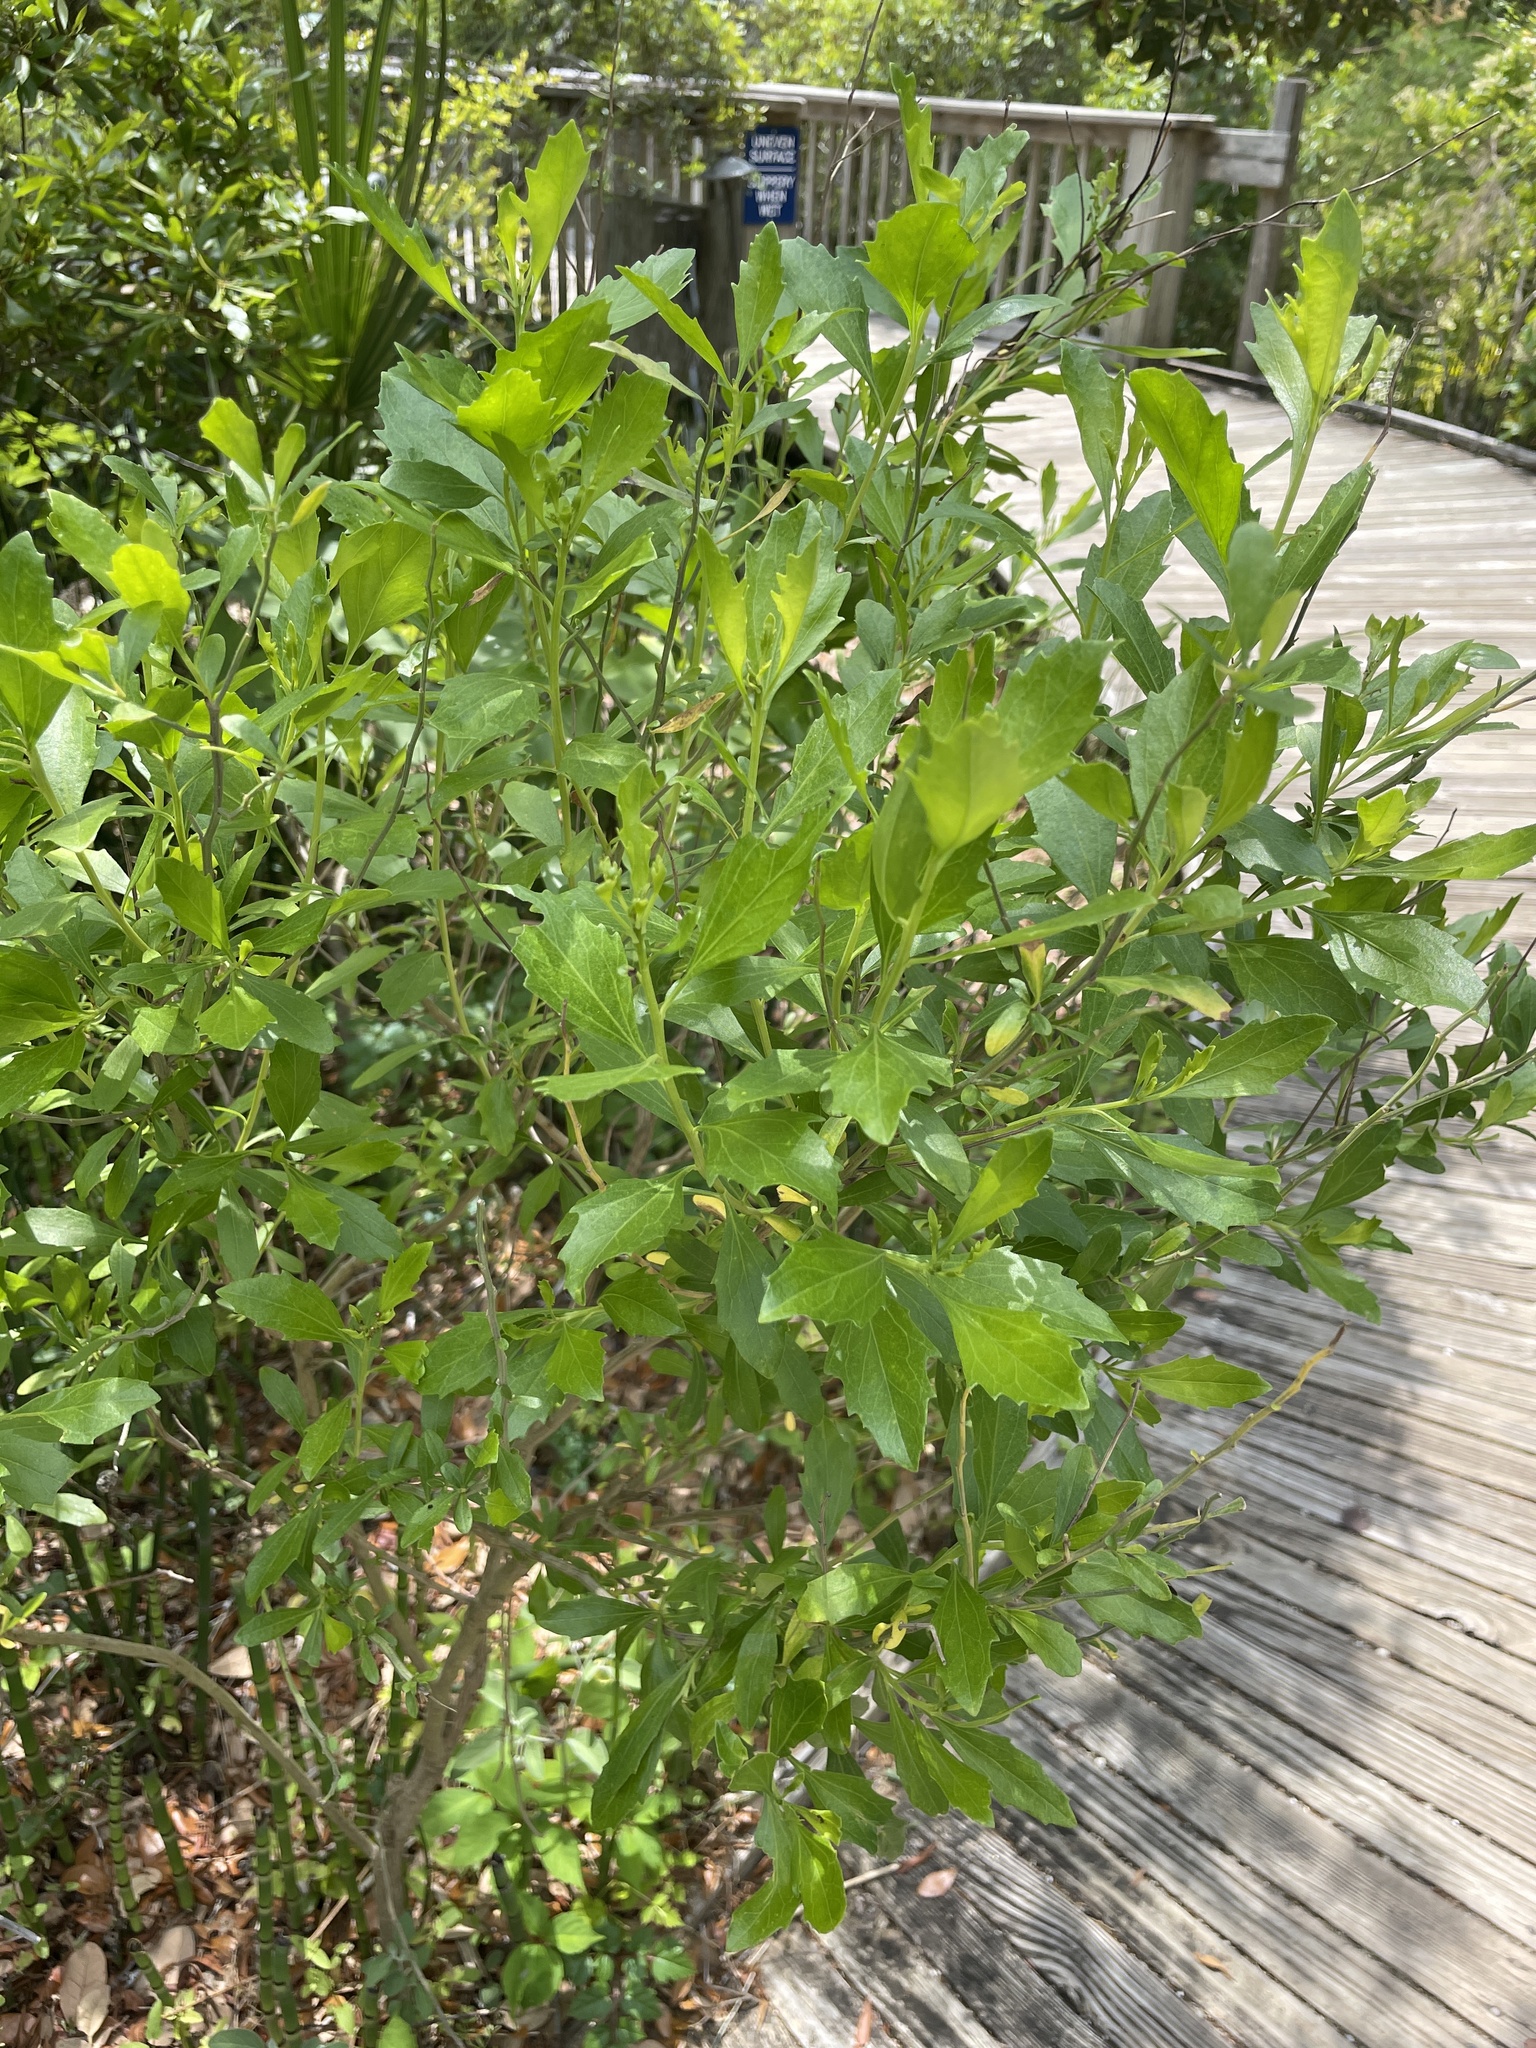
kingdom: Plantae
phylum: Tracheophyta
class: Magnoliopsida
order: Asterales
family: Asteraceae
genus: Baccharis
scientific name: Baccharis halimifolia
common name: Eastern baccharis
